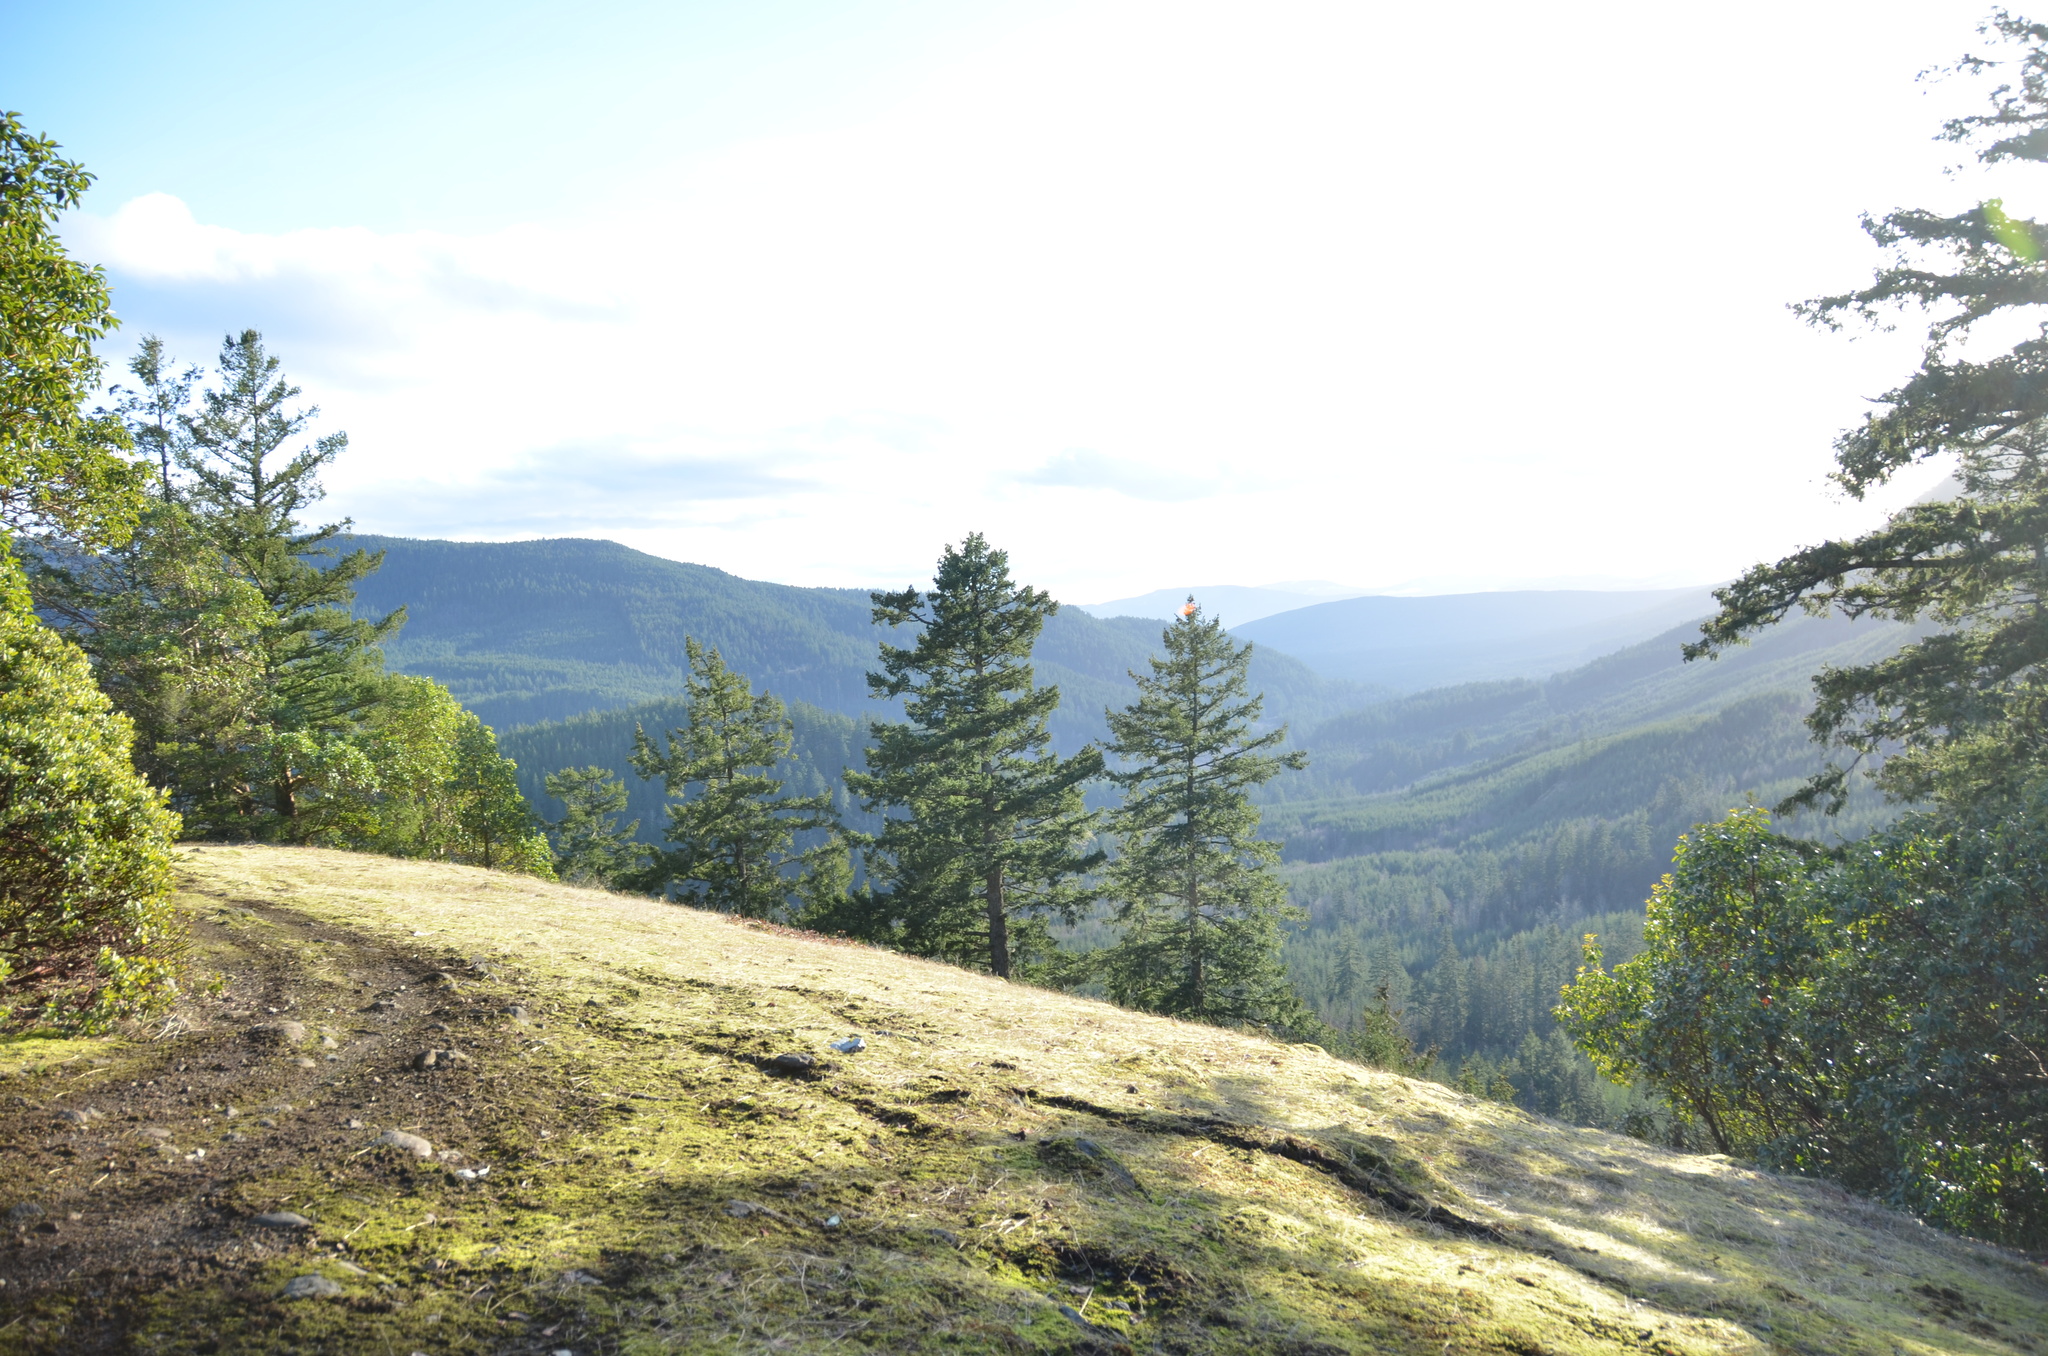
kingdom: Plantae
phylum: Tracheophyta
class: Pinopsida
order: Pinales
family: Pinaceae
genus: Pseudotsuga
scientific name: Pseudotsuga menziesii
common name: Douglas fir
